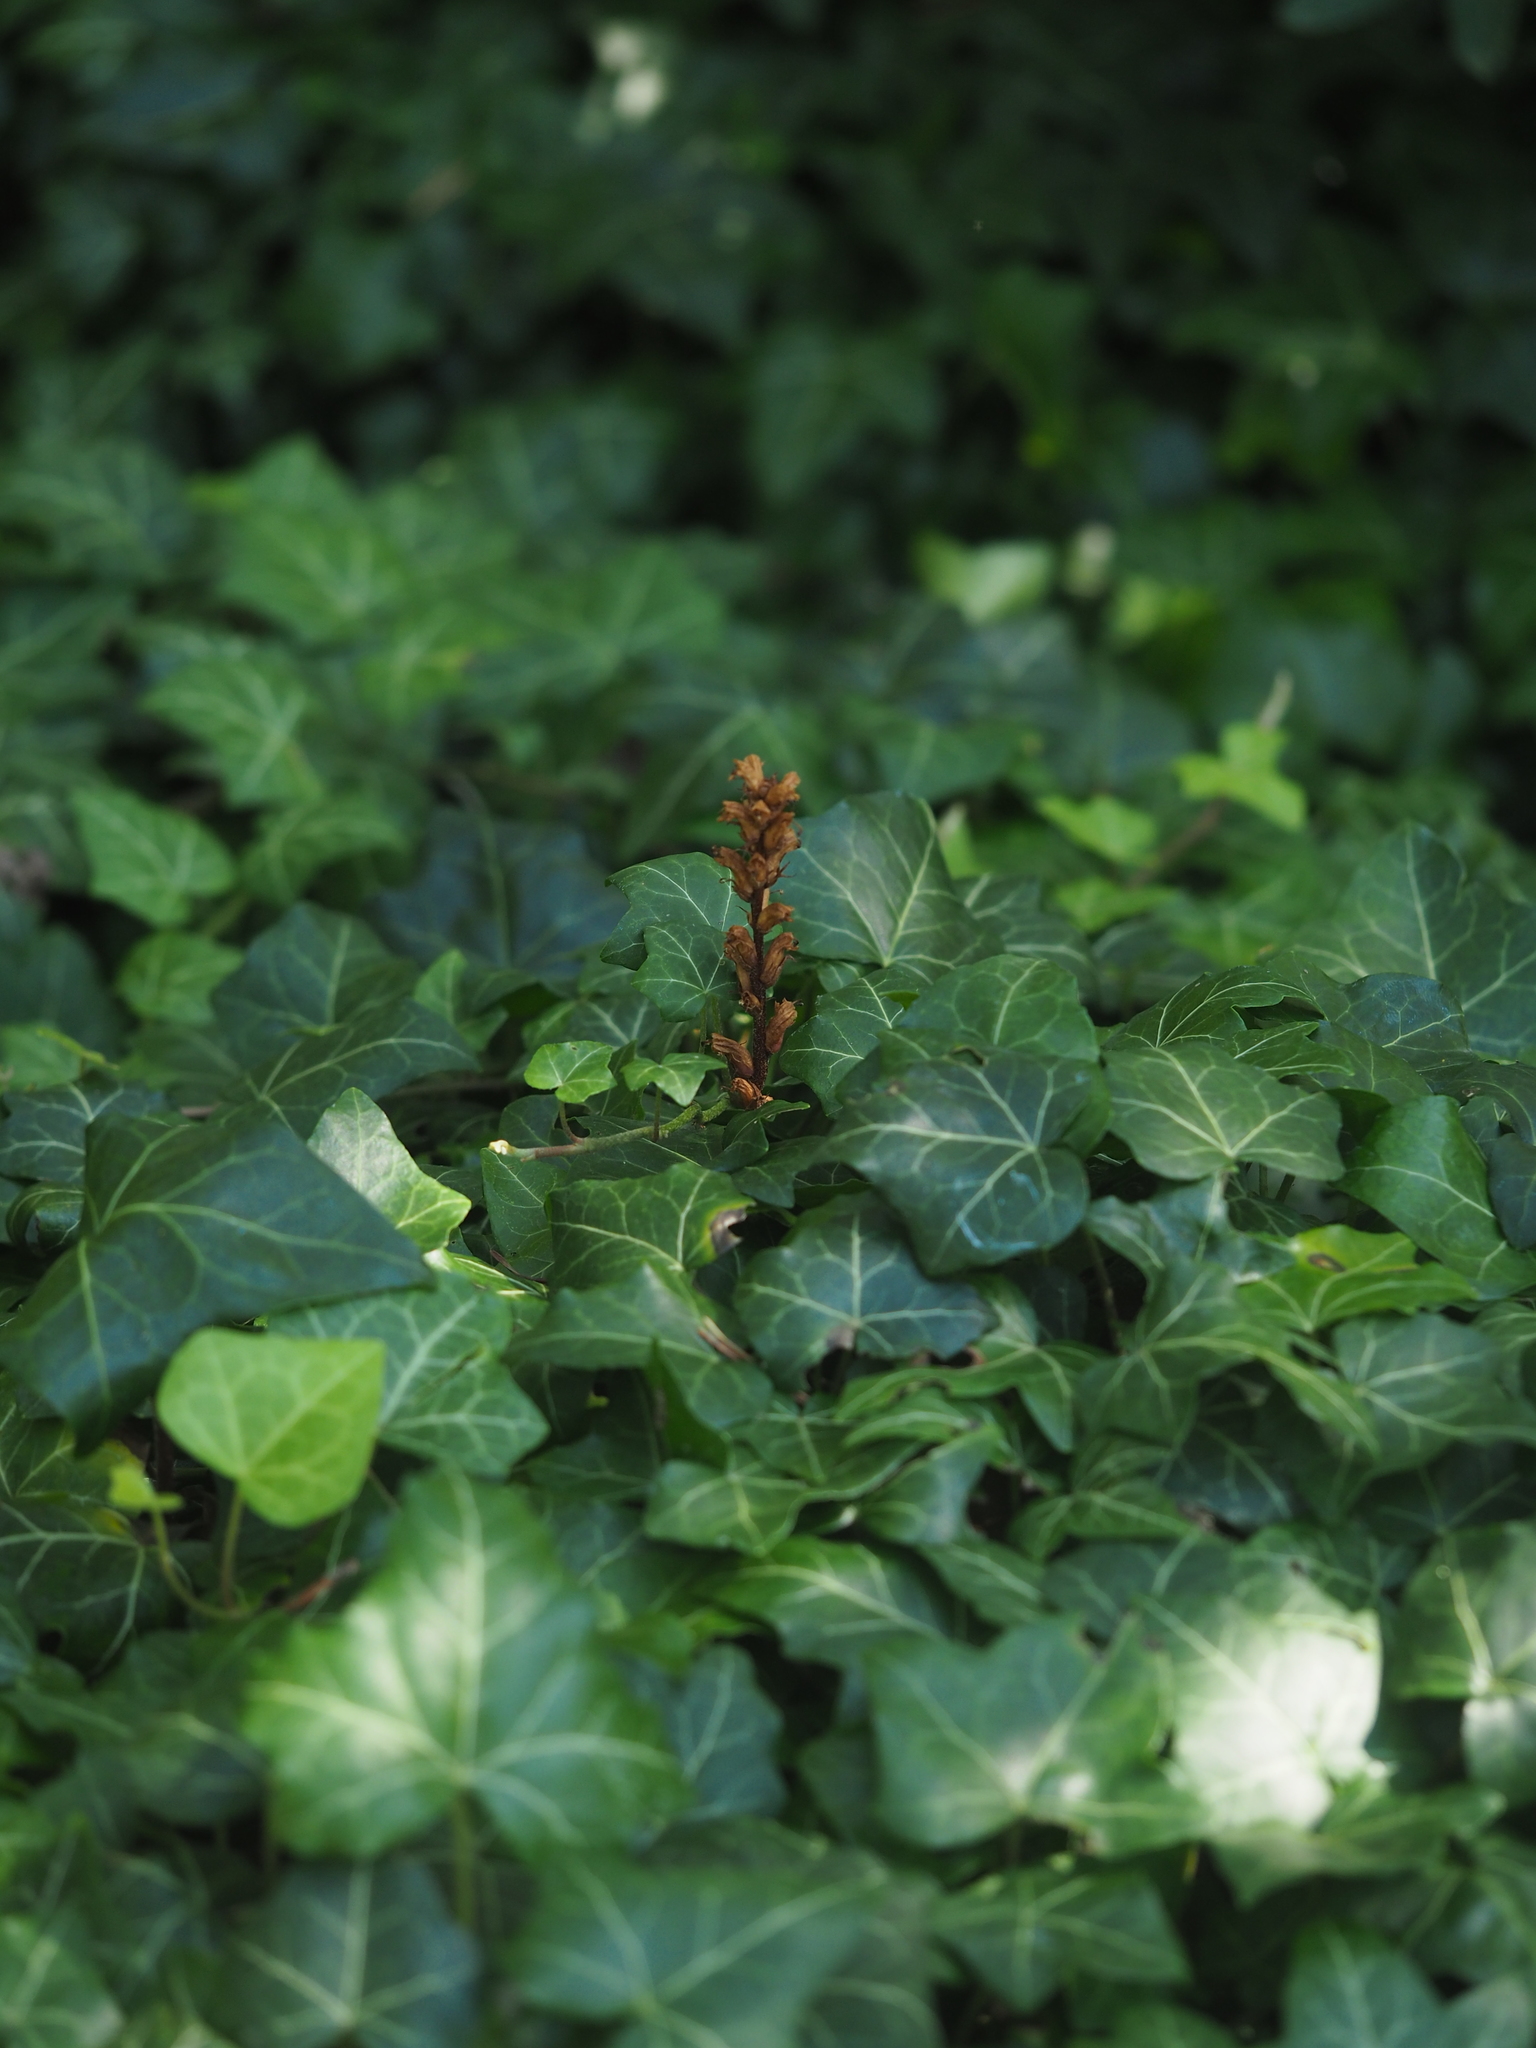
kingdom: Plantae
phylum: Tracheophyta
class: Magnoliopsida
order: Lamiales
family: Orobanchaceae
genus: Orobanche
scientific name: Orobanche hederae
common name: Ivy broomrape
